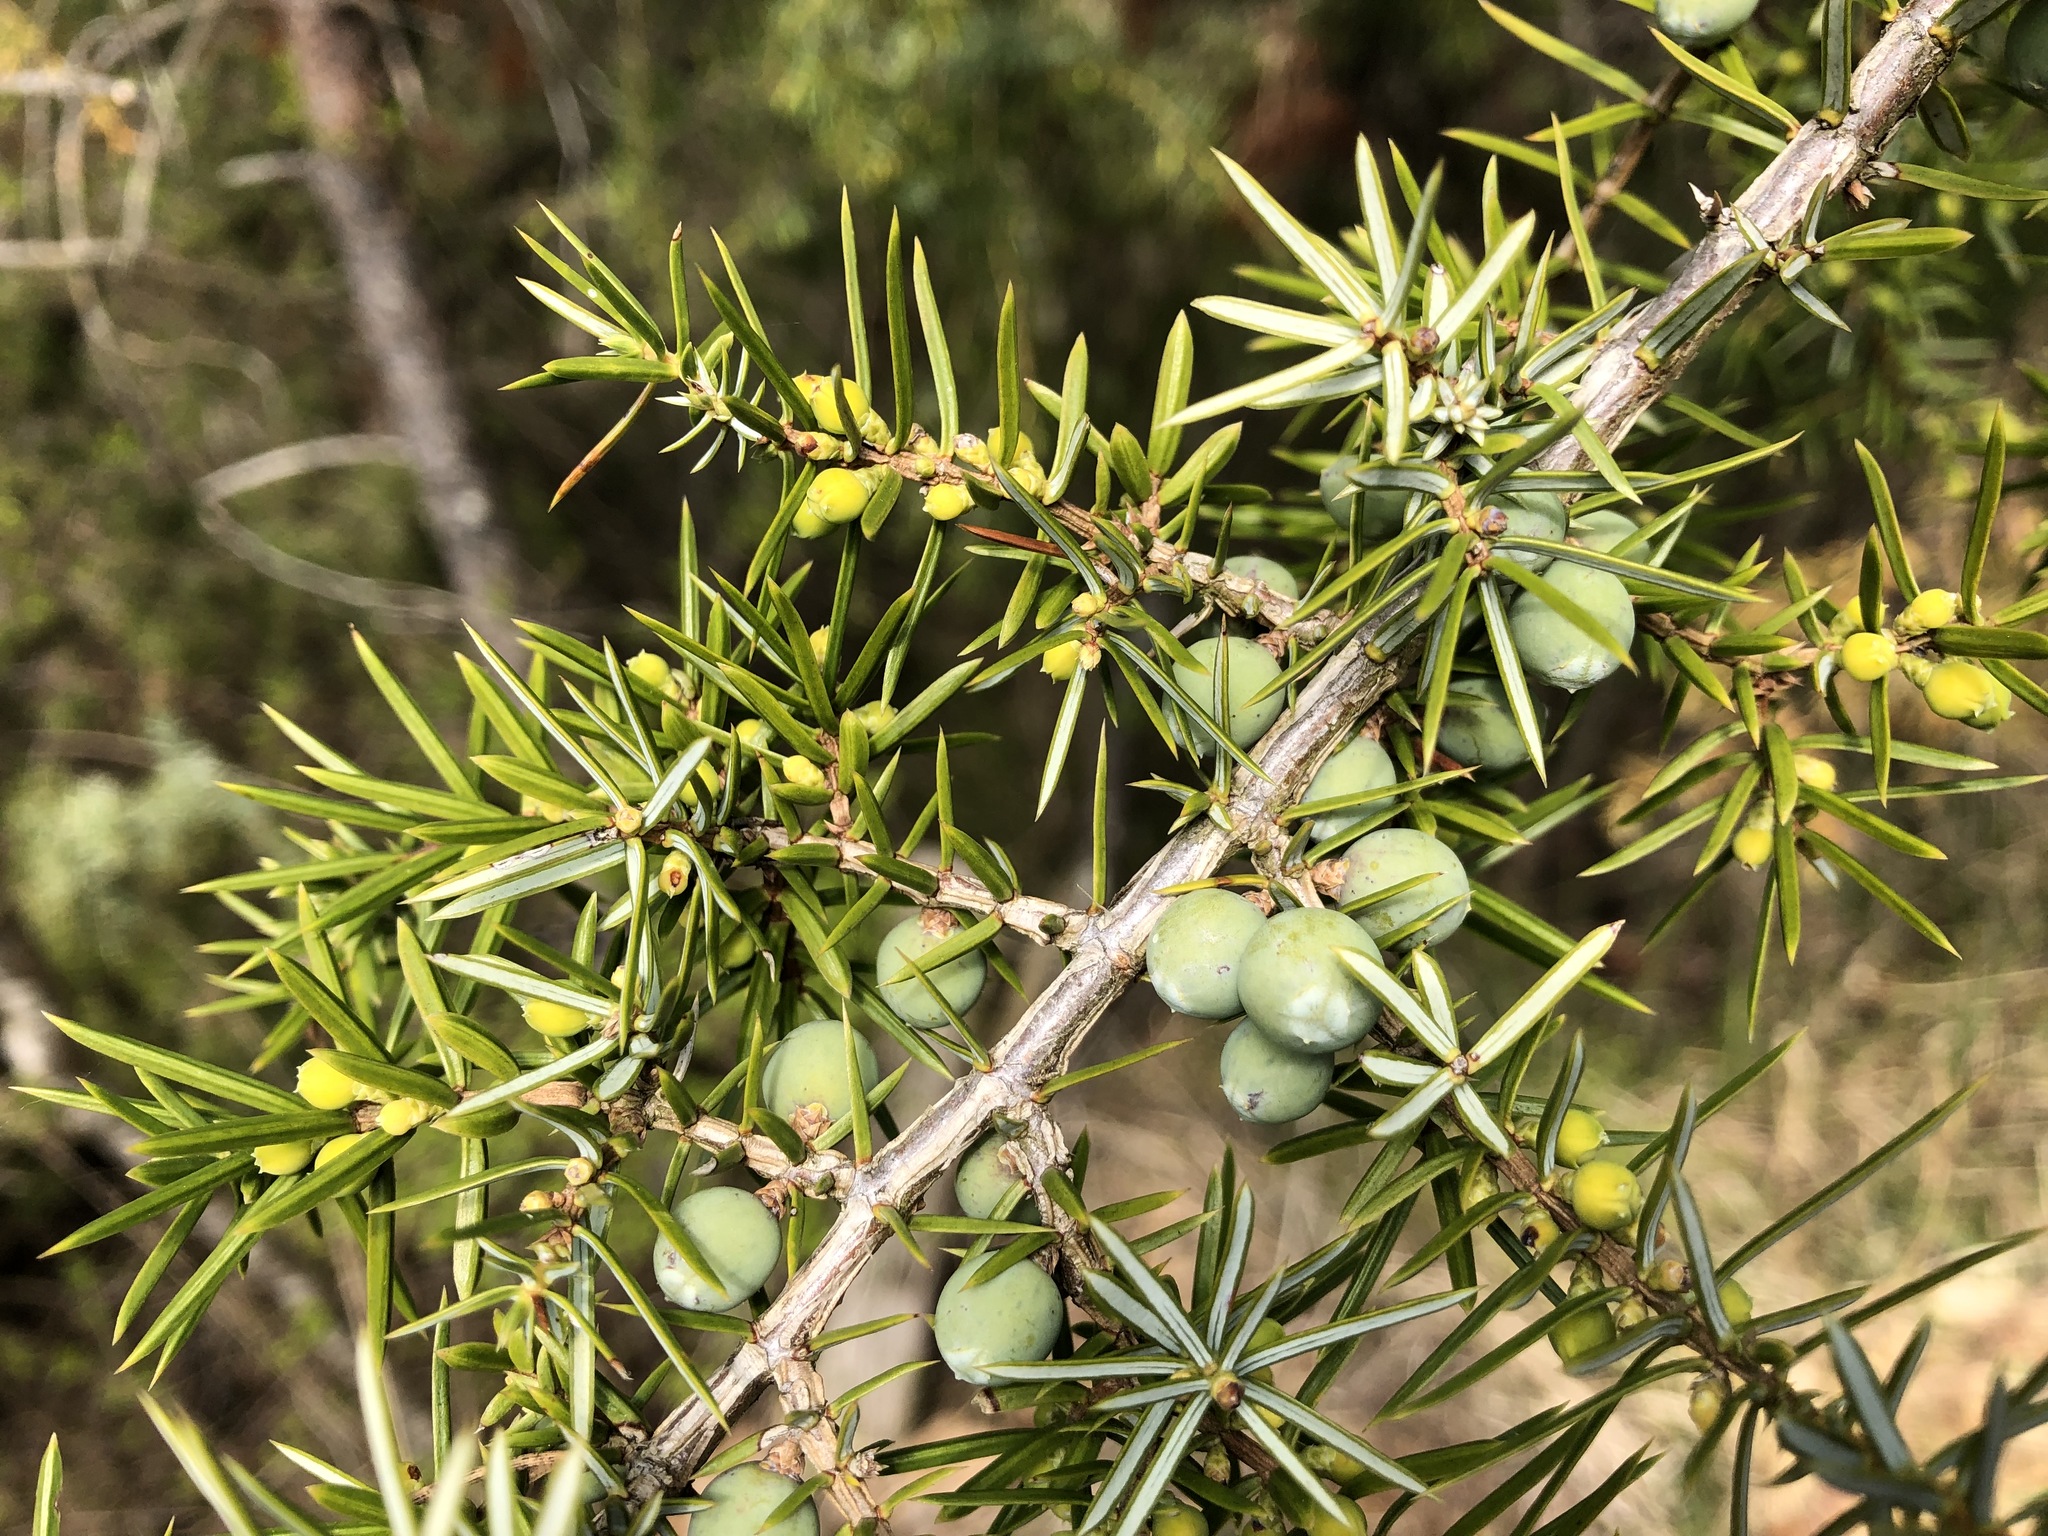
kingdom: Plantae
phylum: Tracheophyta
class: Pinopsida
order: Pinales
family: Cupressaceae
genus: Juniperus
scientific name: Juniperus communis
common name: Common juniper
